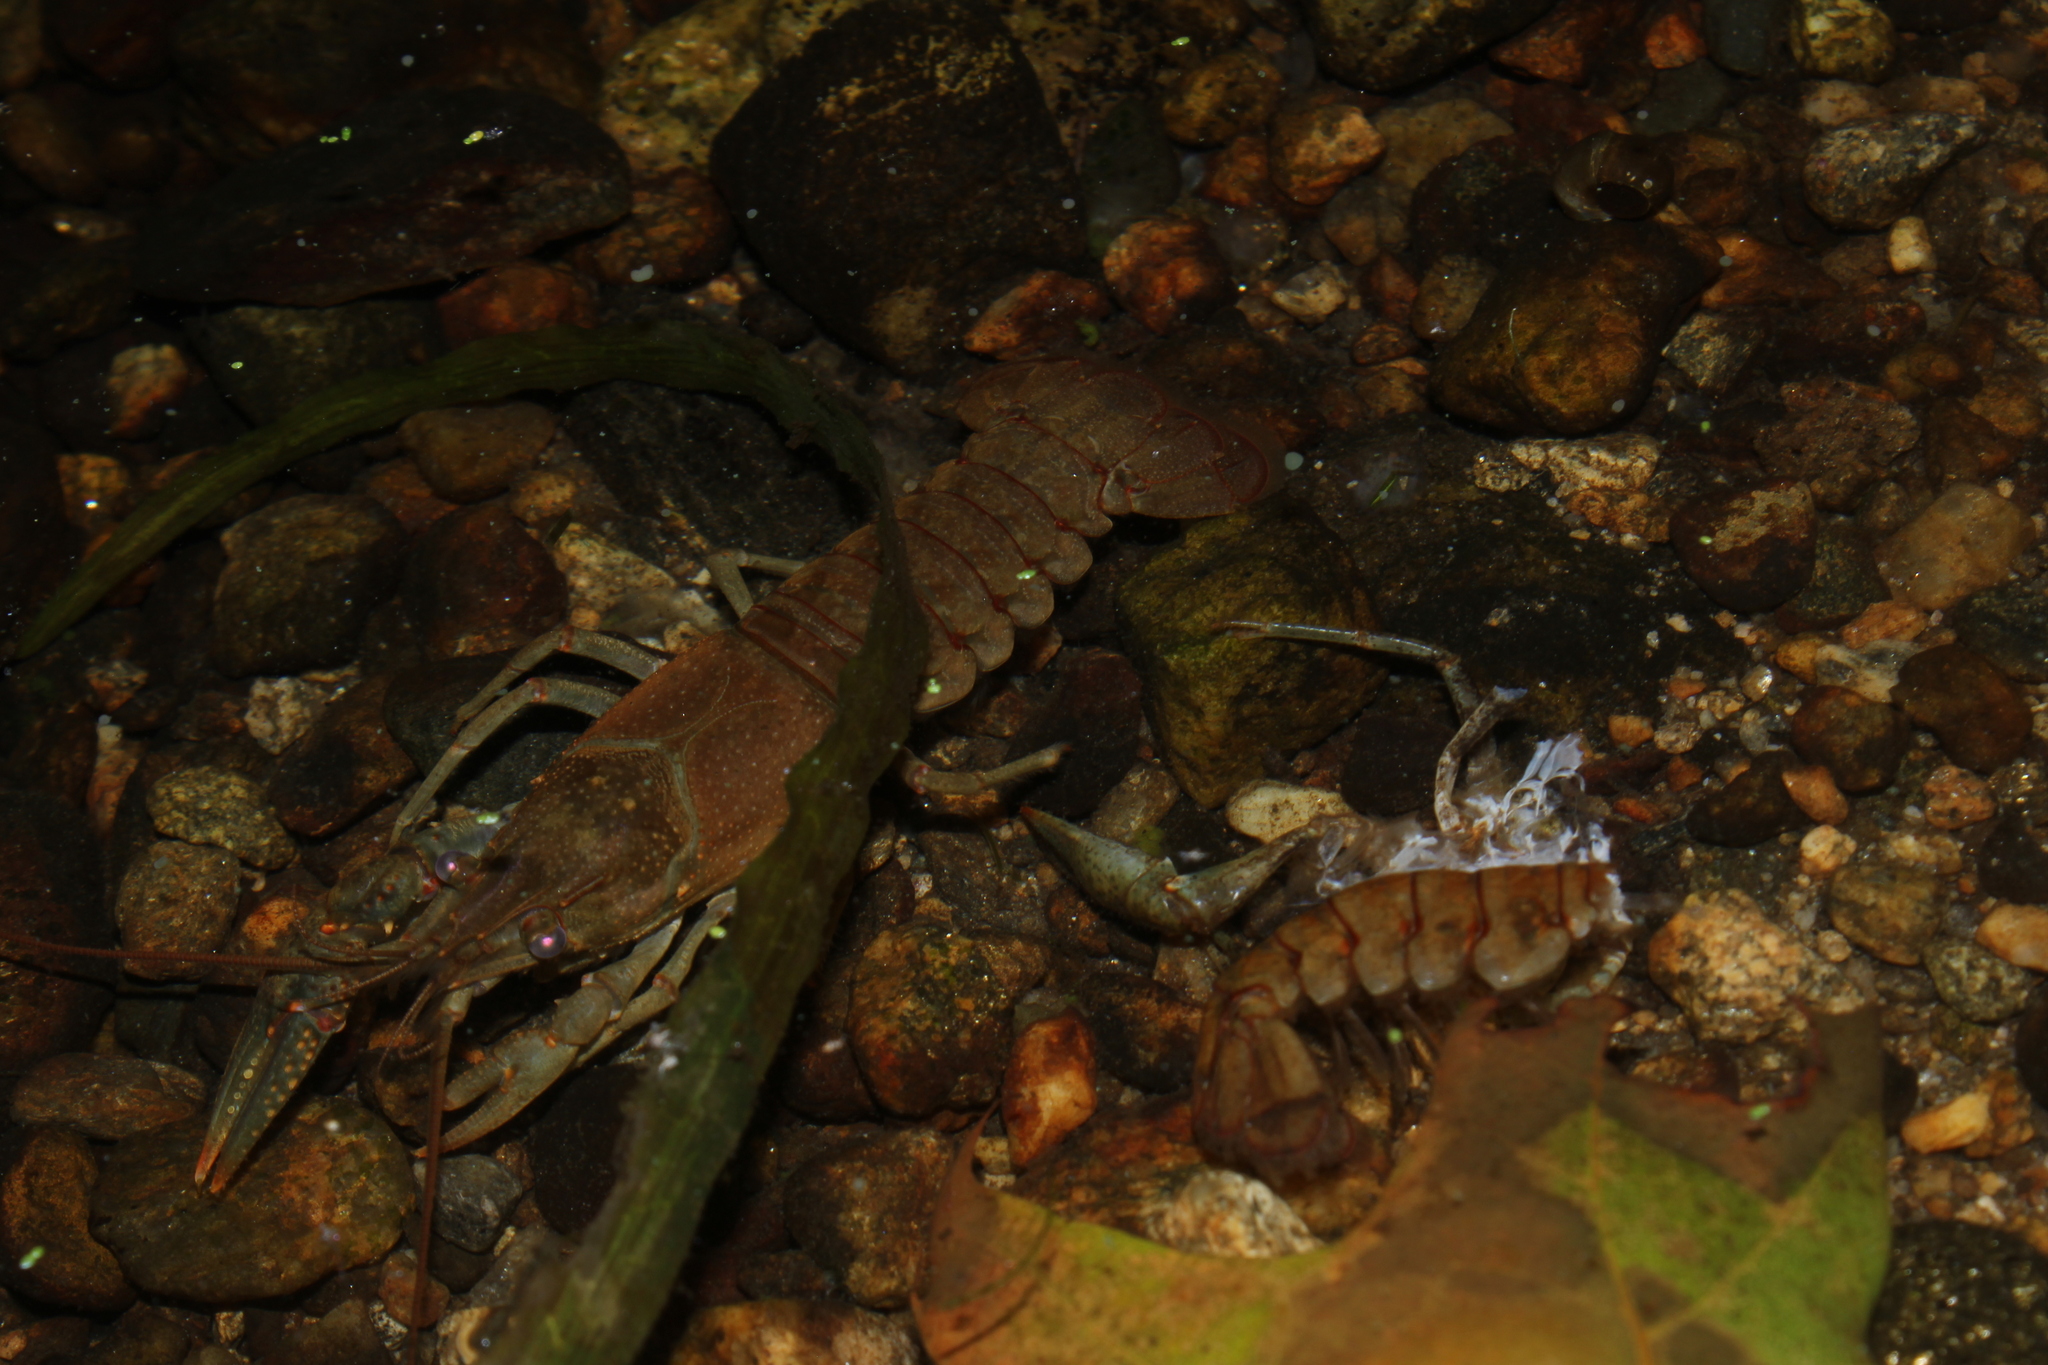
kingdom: Animalia
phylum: Arthropoda
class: Malacostraca
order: Decapoda
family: Cambaridae
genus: Faxonius
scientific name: Faxonius virilis
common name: Virile crayfish
